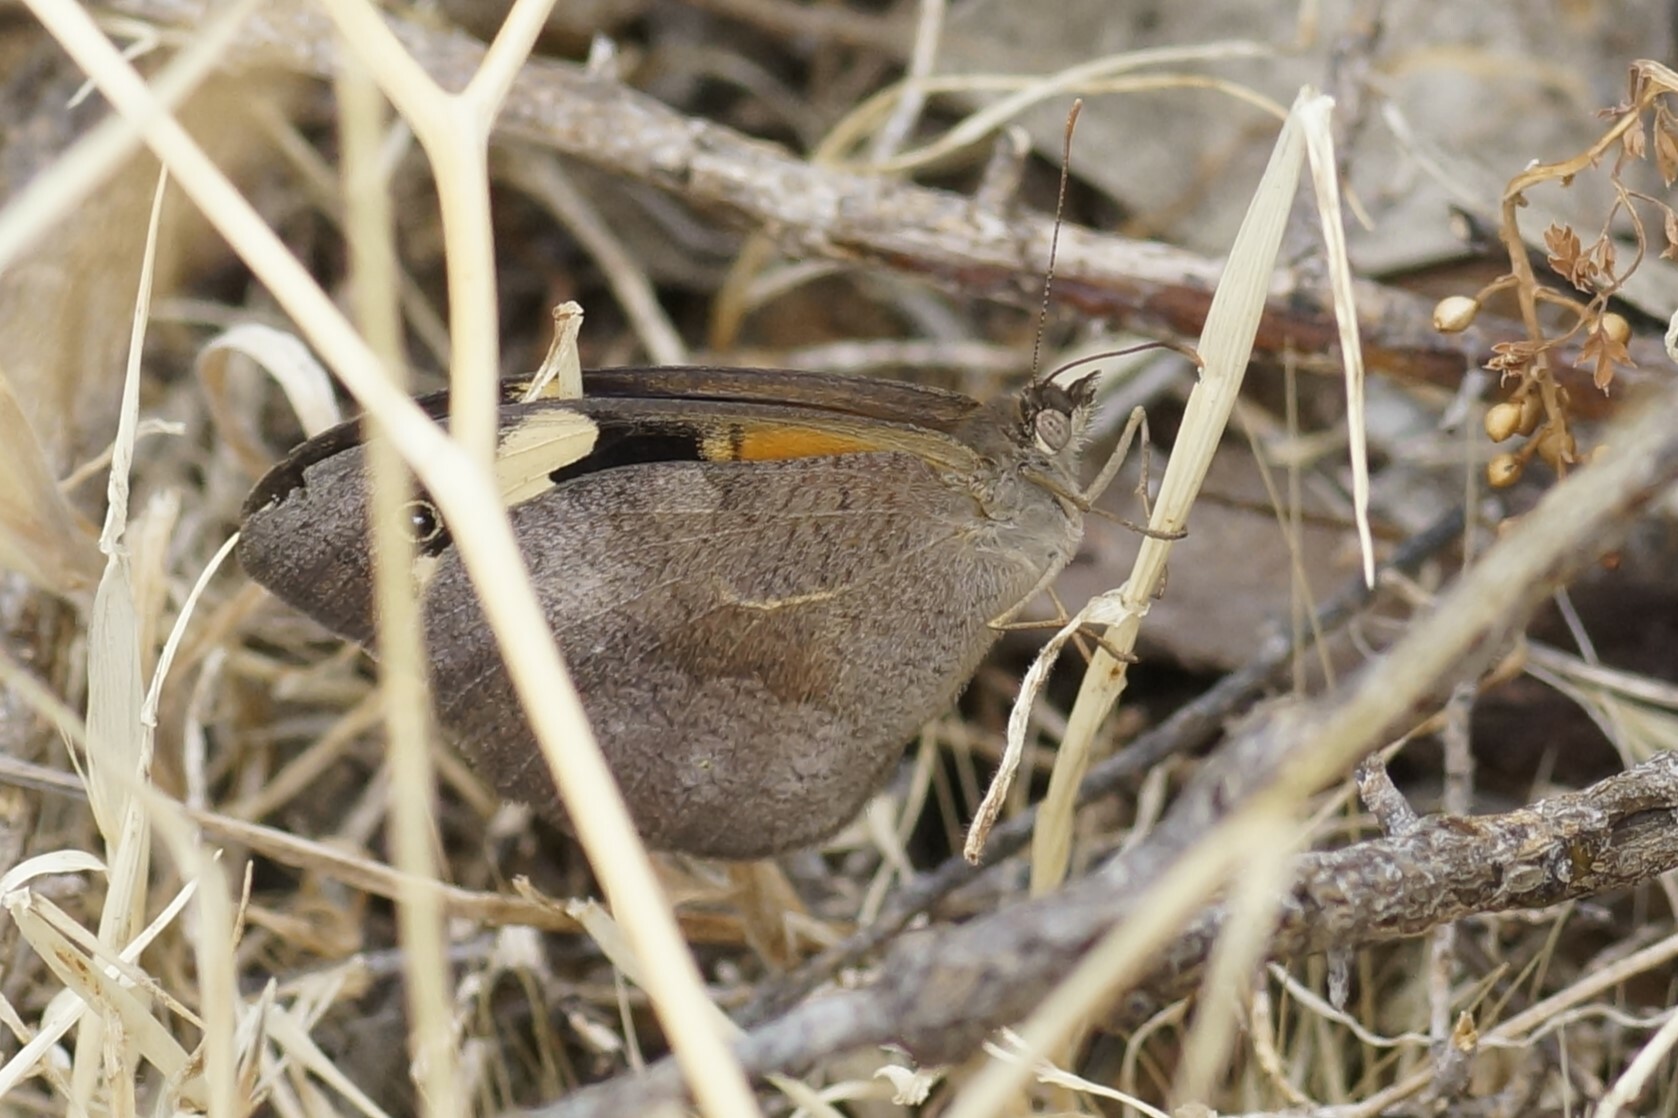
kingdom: Animalia
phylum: Arthropoda
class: Insecta
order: Lepidoptera
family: Nymphalidae
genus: Heteronympha
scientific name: Heteronympha merope
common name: Common brown
